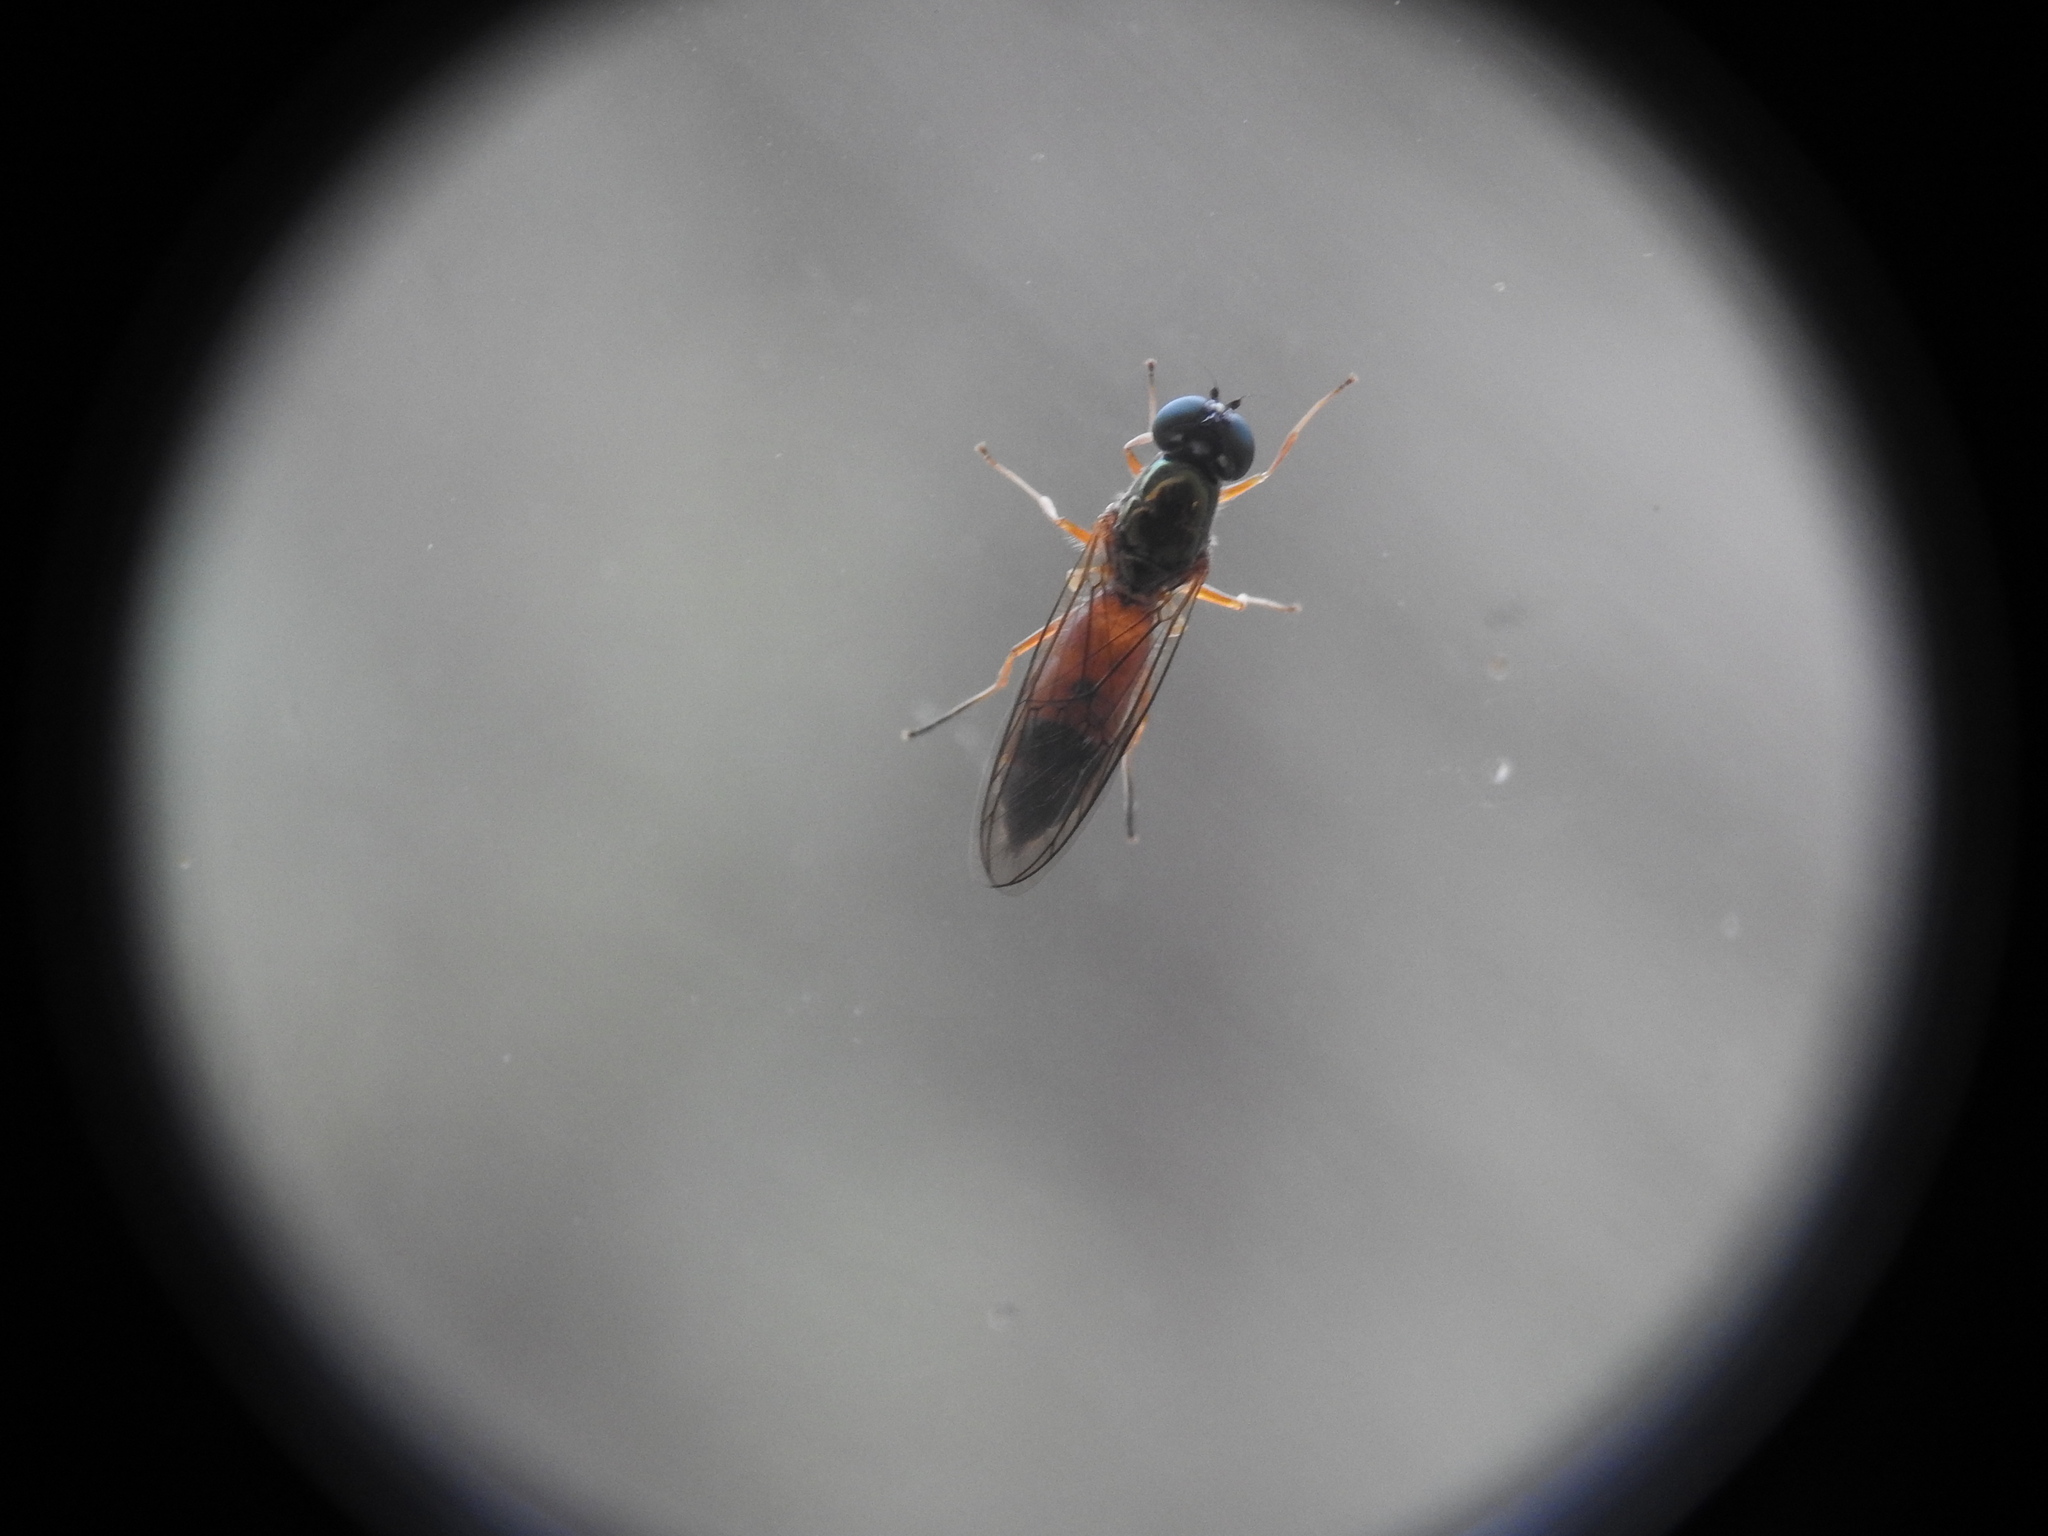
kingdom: Animalia
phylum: Arthropoda
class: Insecta
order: Diptera
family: Stratiomyidae
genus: Sargus
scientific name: Sargus bipunctatus
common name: Twin-spot centurion
